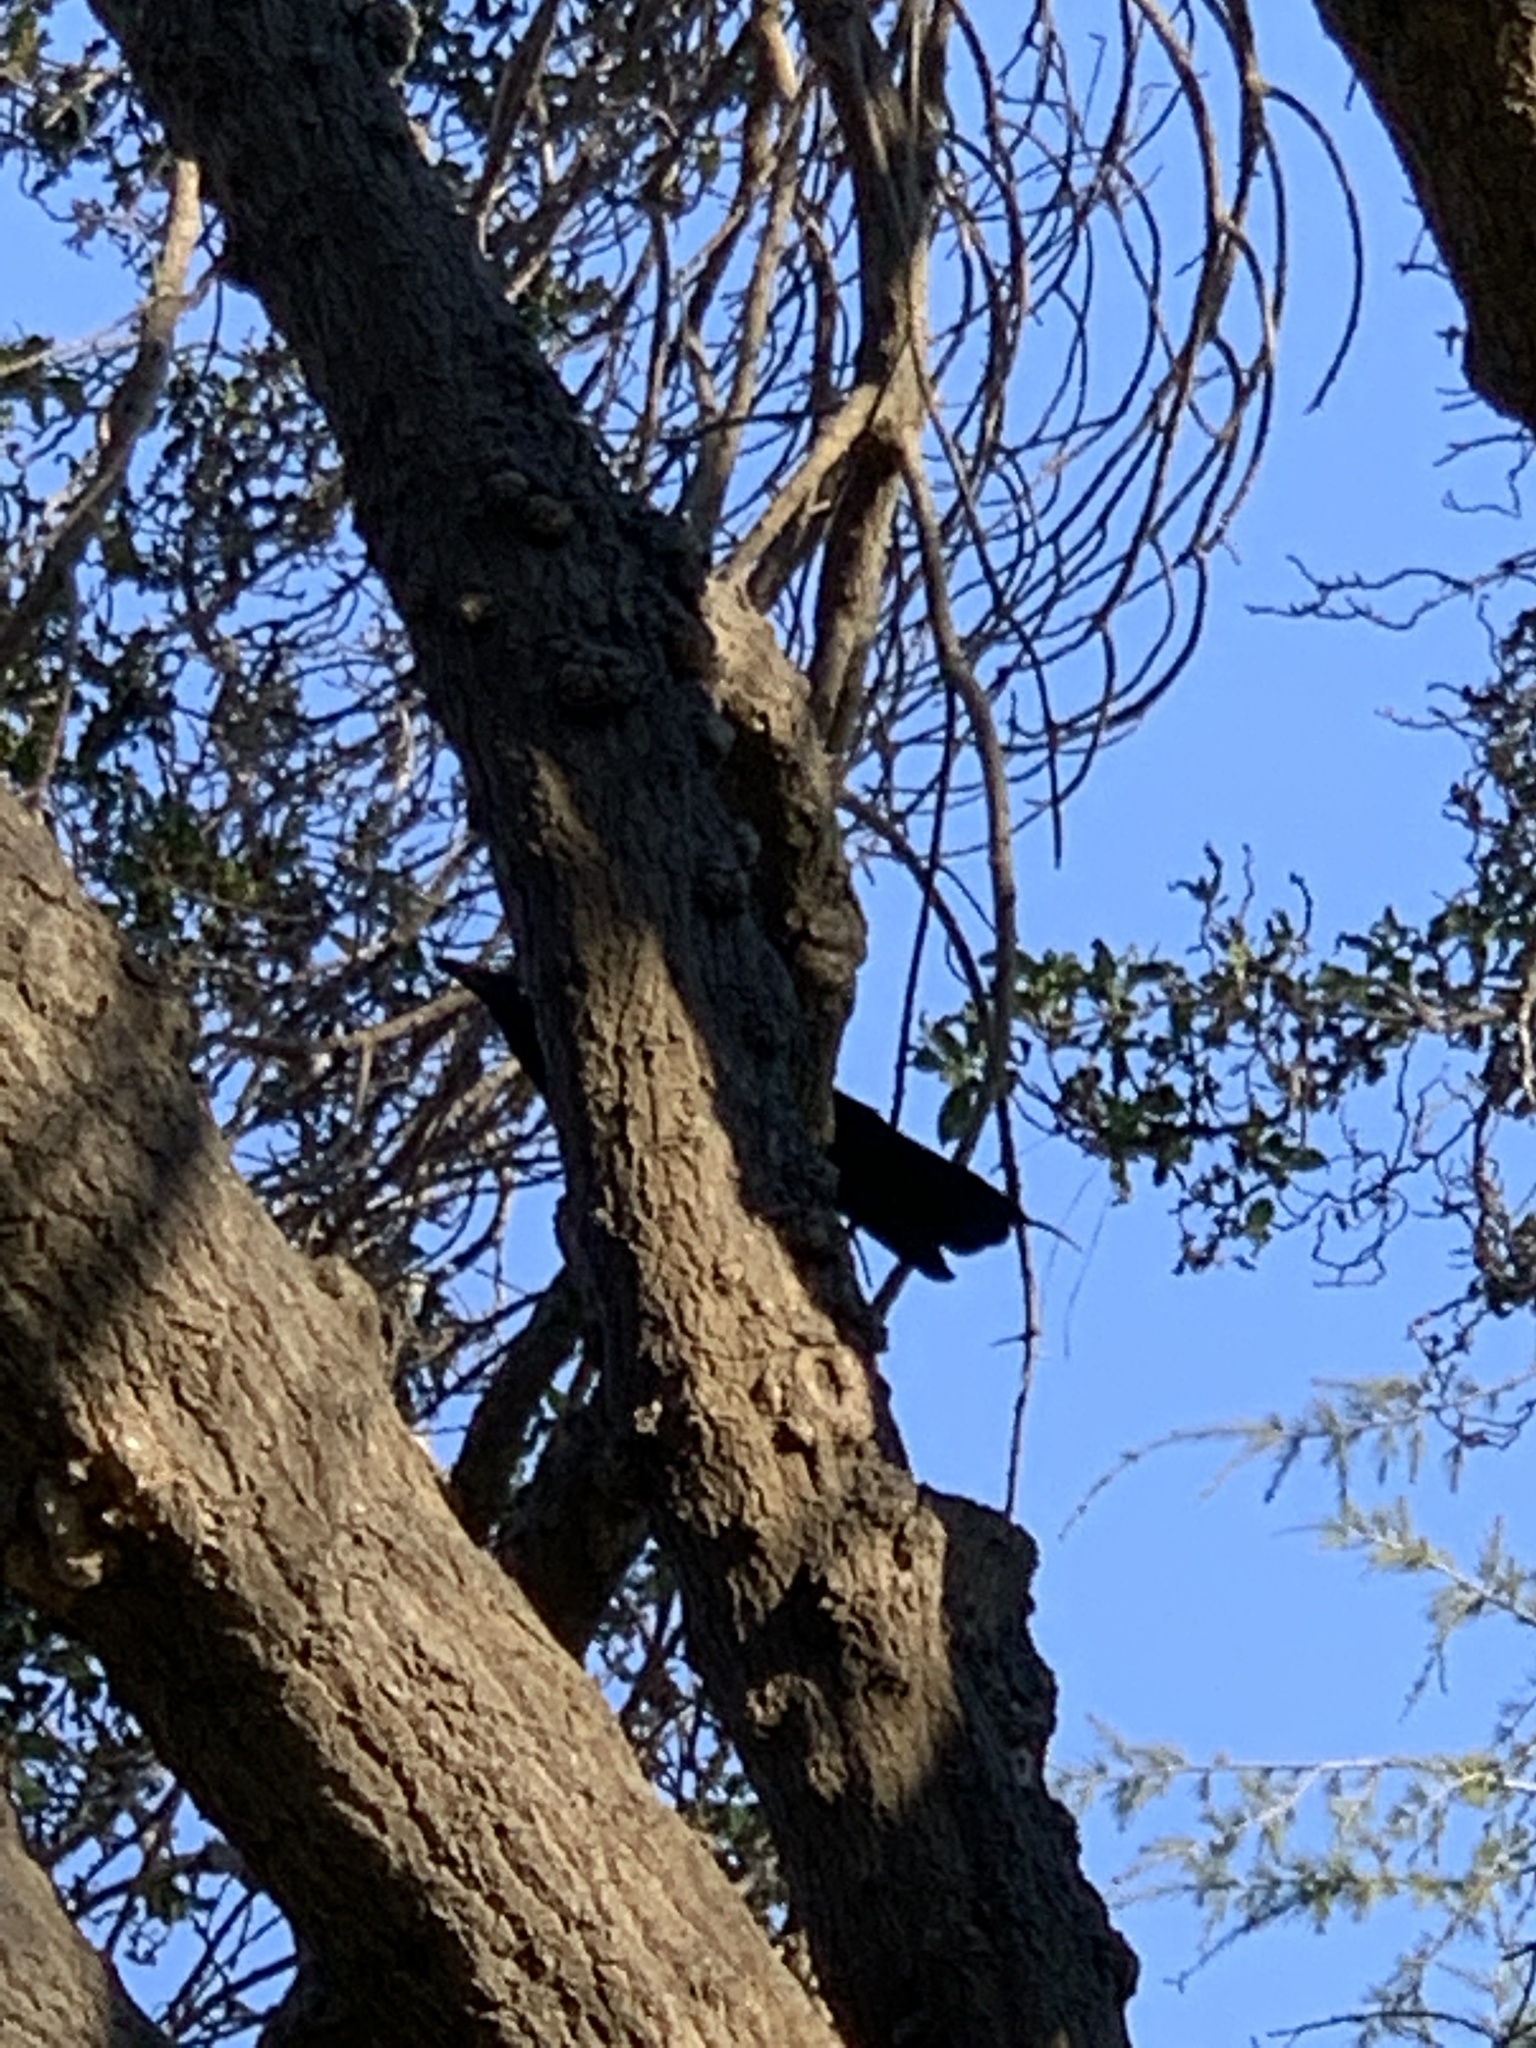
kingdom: Animalia
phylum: Chordata
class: Aves
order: Passeriformes
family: Corvidae
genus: Corvus
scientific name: Corvus brachyrhynchos
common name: American crow
